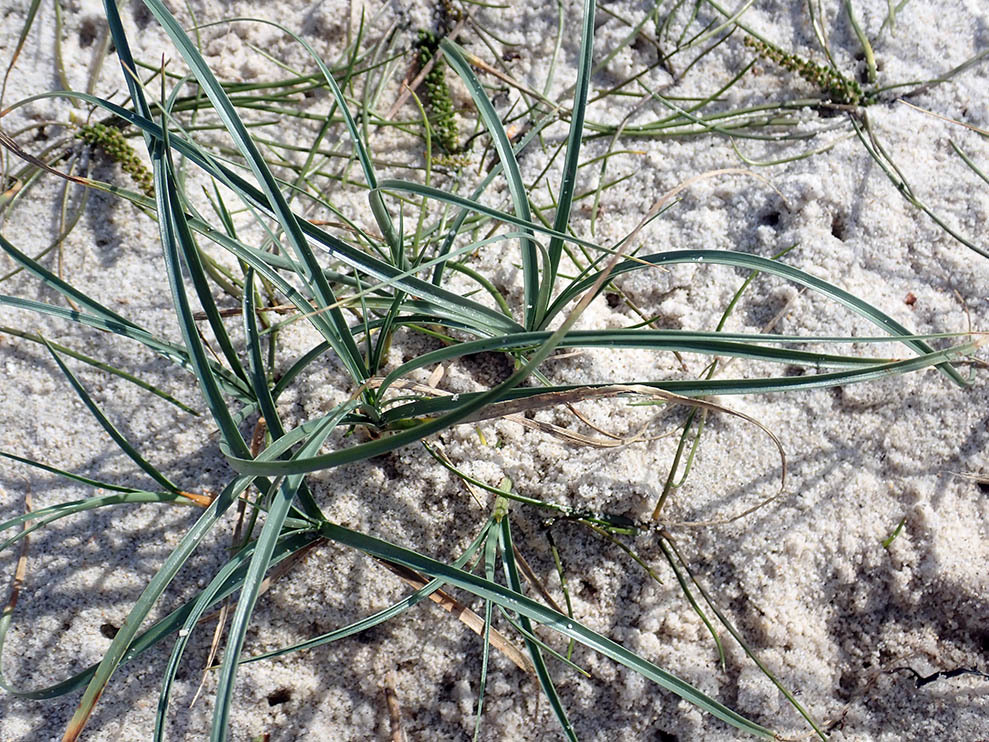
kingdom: Plantae
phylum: Tracheophyta
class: Liliopsida
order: Poales
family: Cyperaceae
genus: Carex
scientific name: Carex pumila
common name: Dwarf sedge
